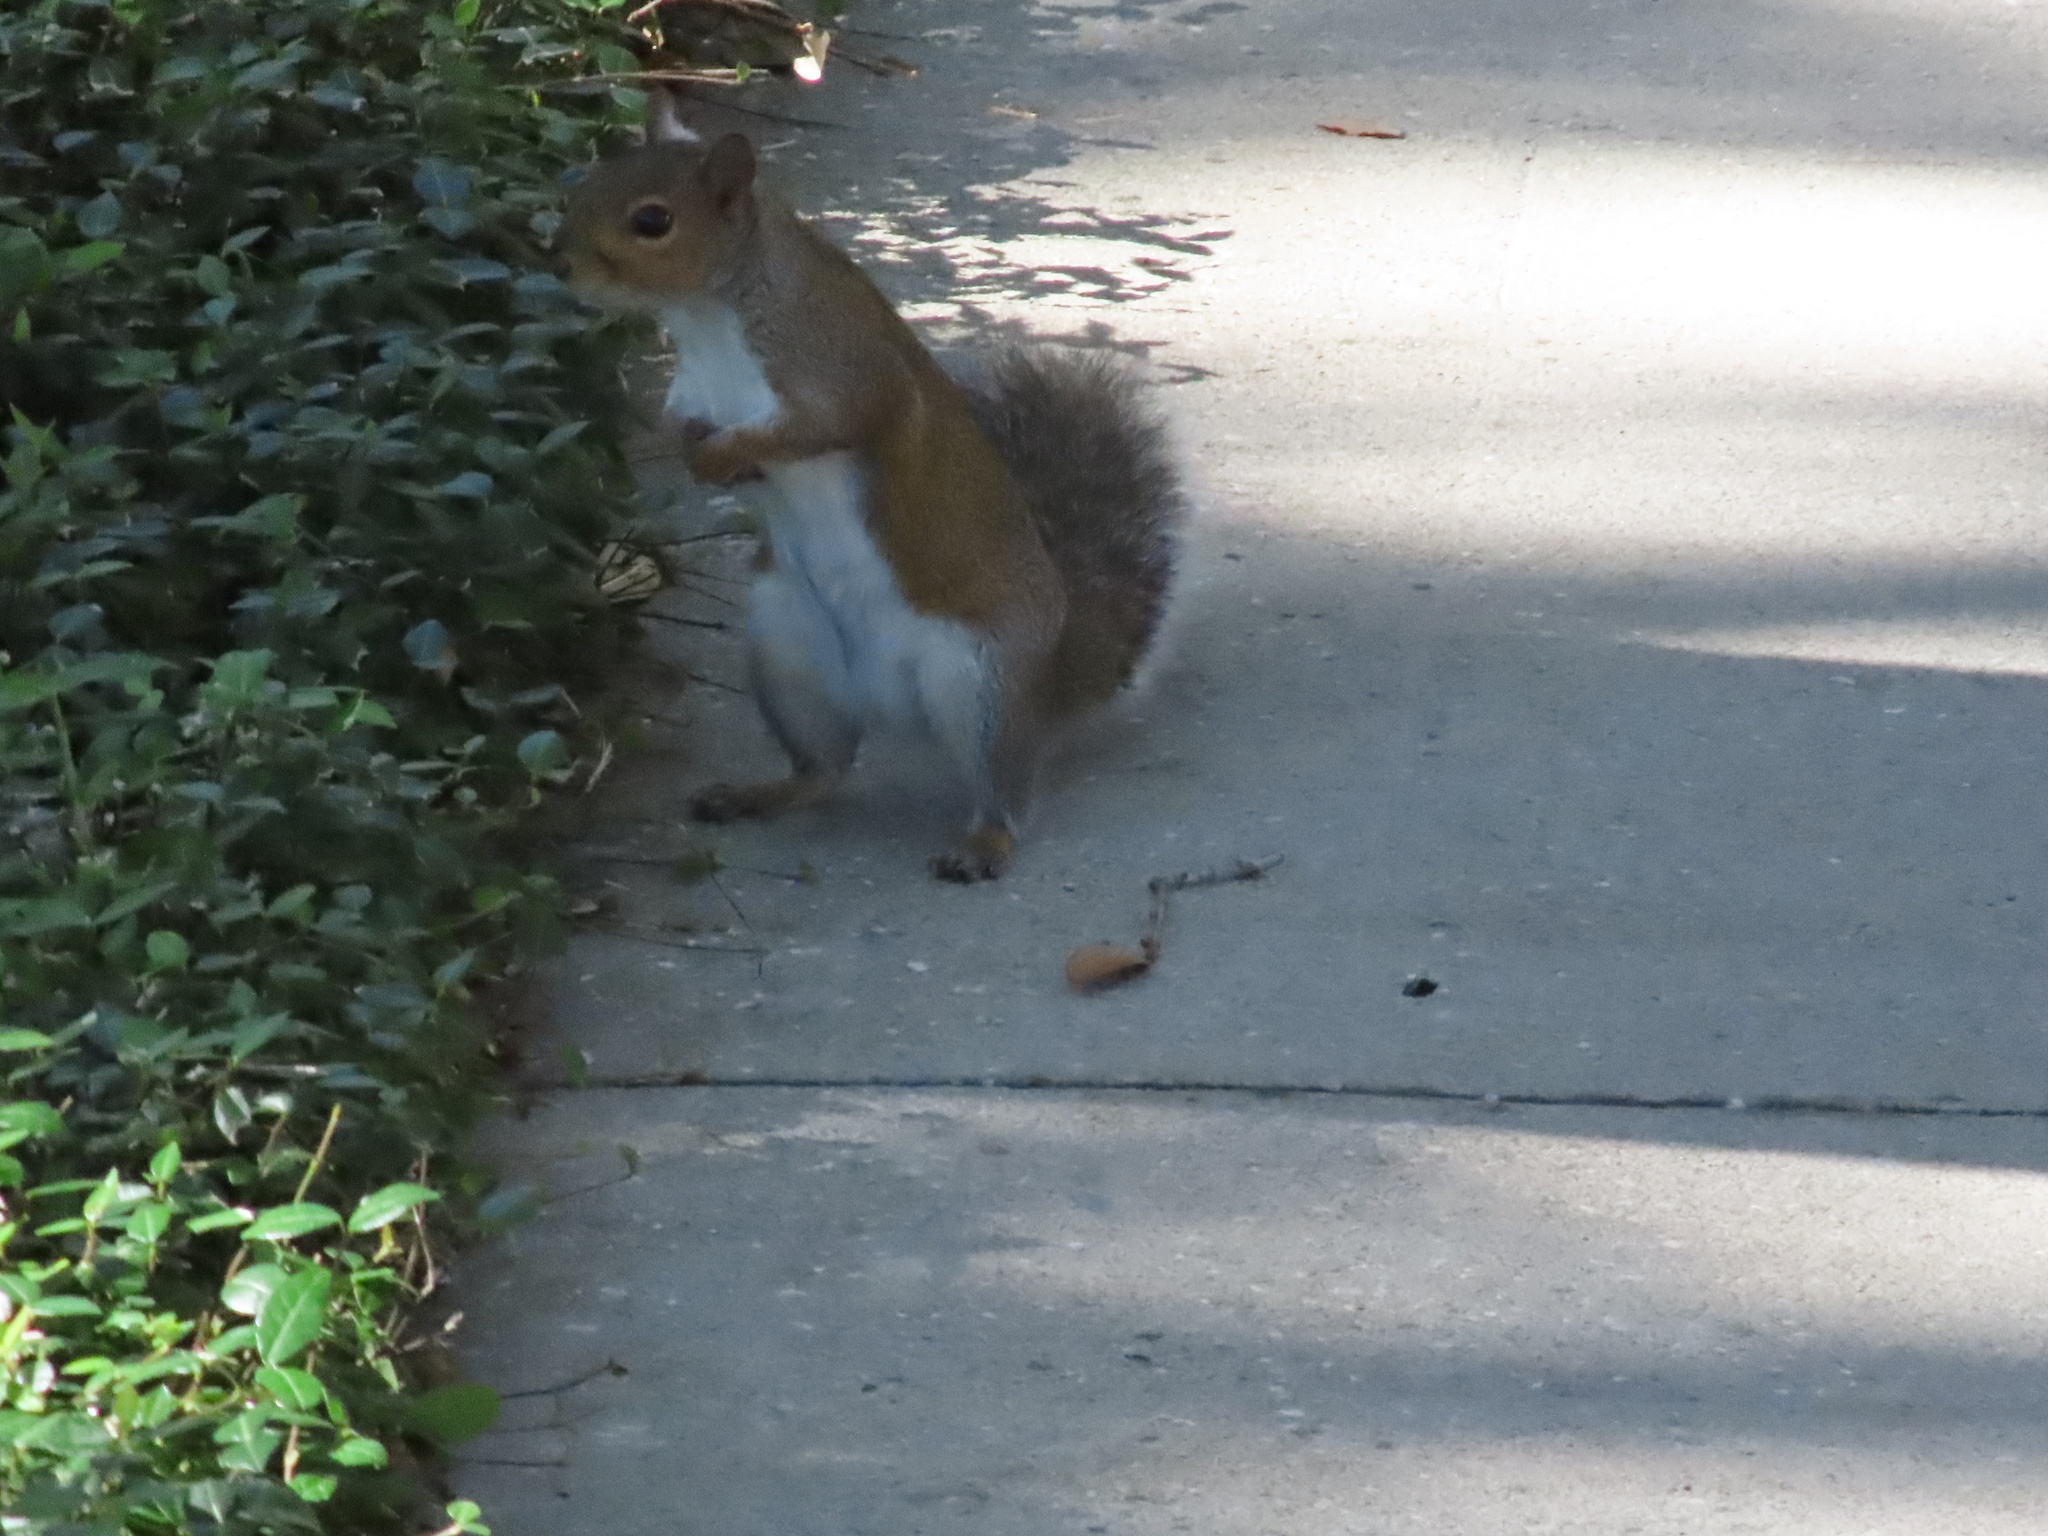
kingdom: Animalia
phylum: Chordata
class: Mammalia
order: Rodentia
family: Sciuridae
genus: Sciurus
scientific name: Sciurus carolinensis
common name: Eastern gray squirrel
